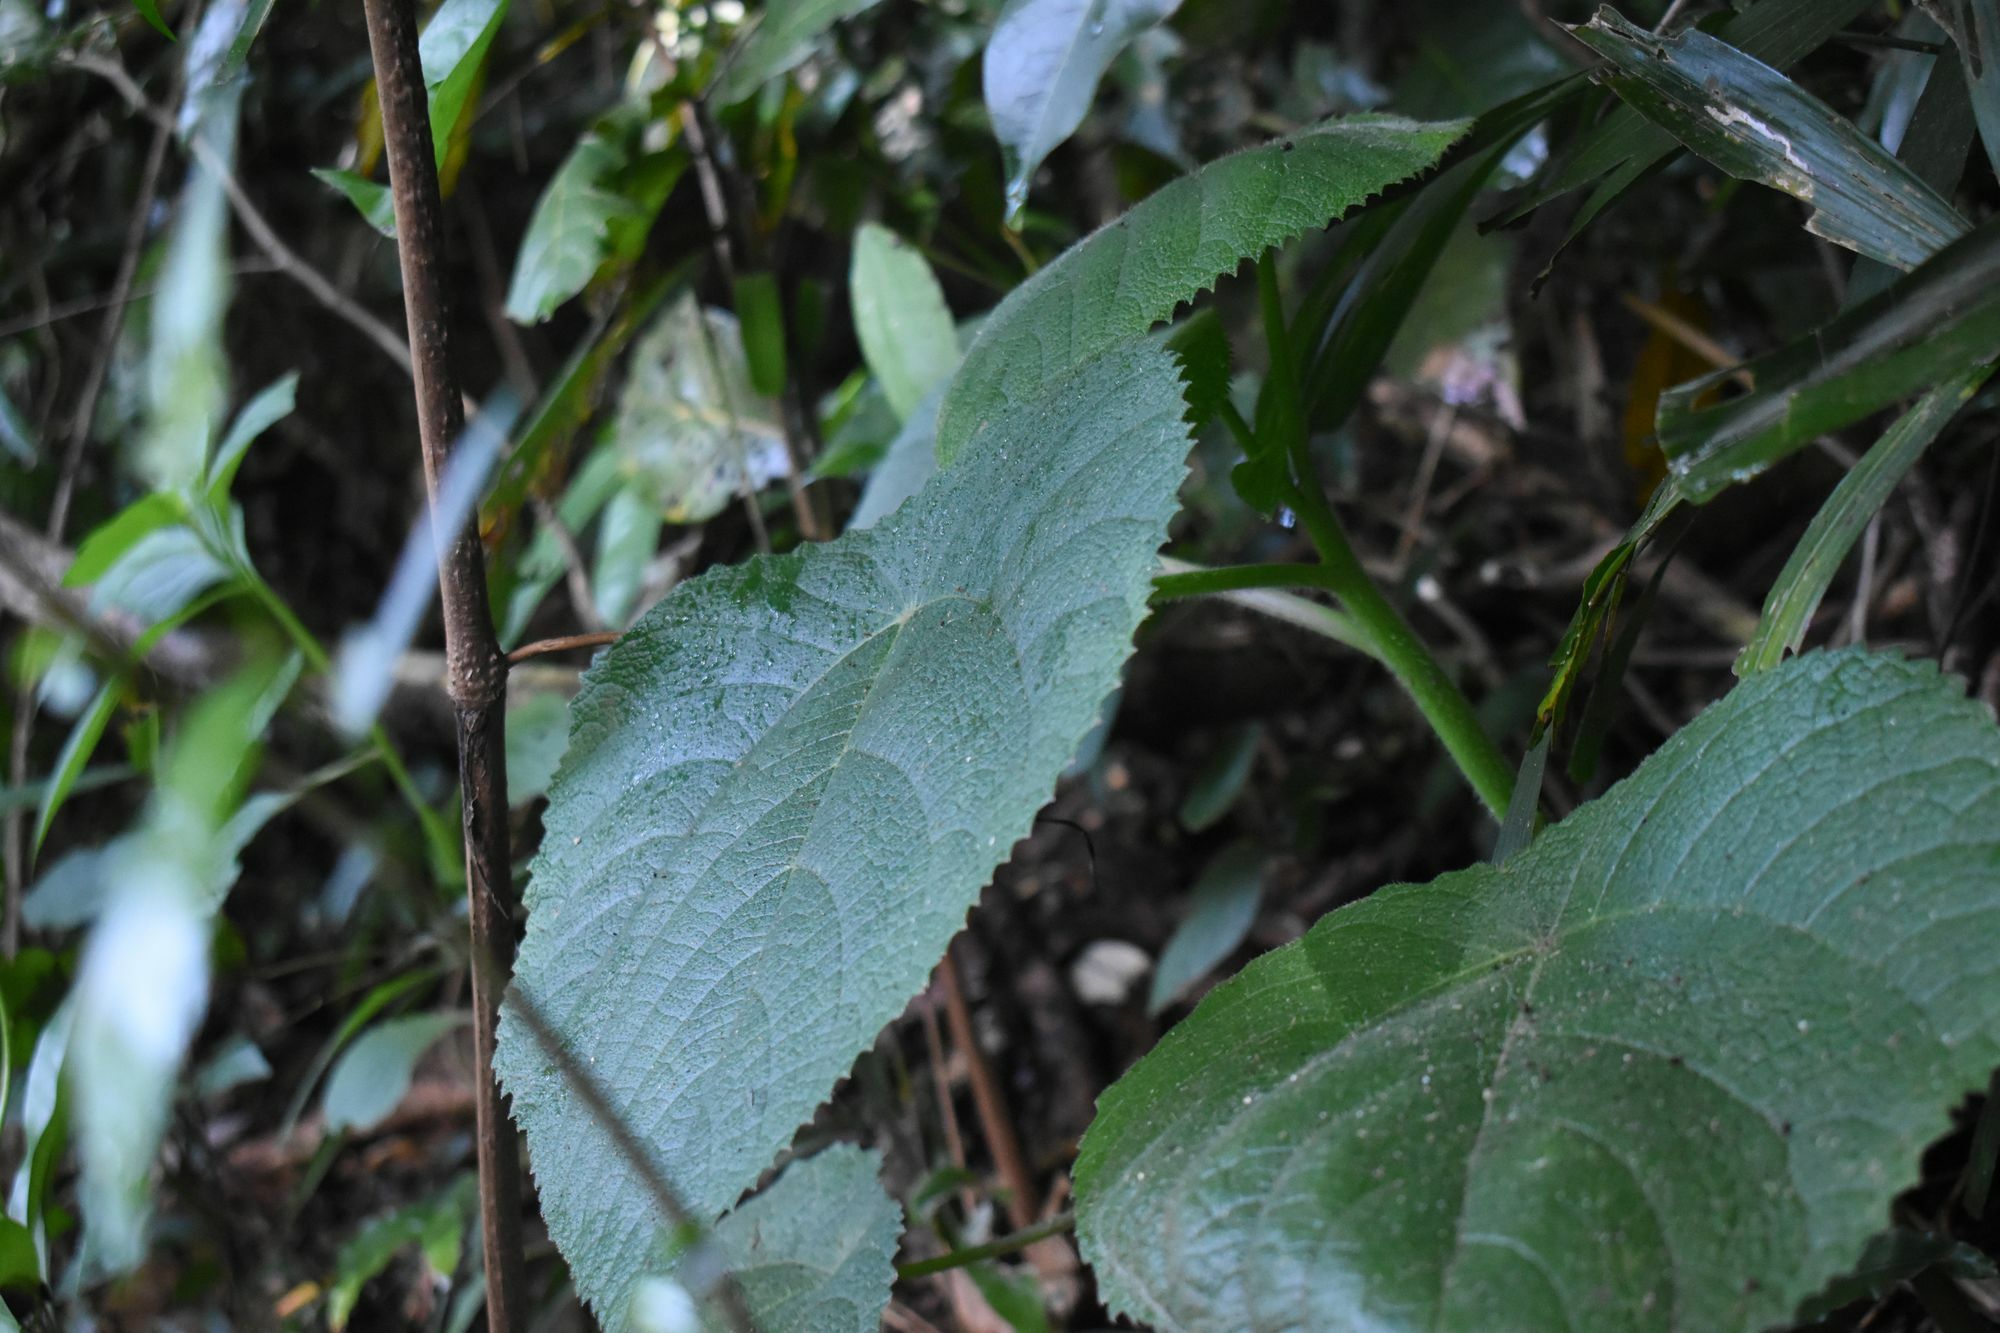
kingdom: Plantae
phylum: Tracheophyta
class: Magnoliopsida
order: Rosales
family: Urticaceae
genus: Dendrocnide
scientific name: Dendrocnide moroides
